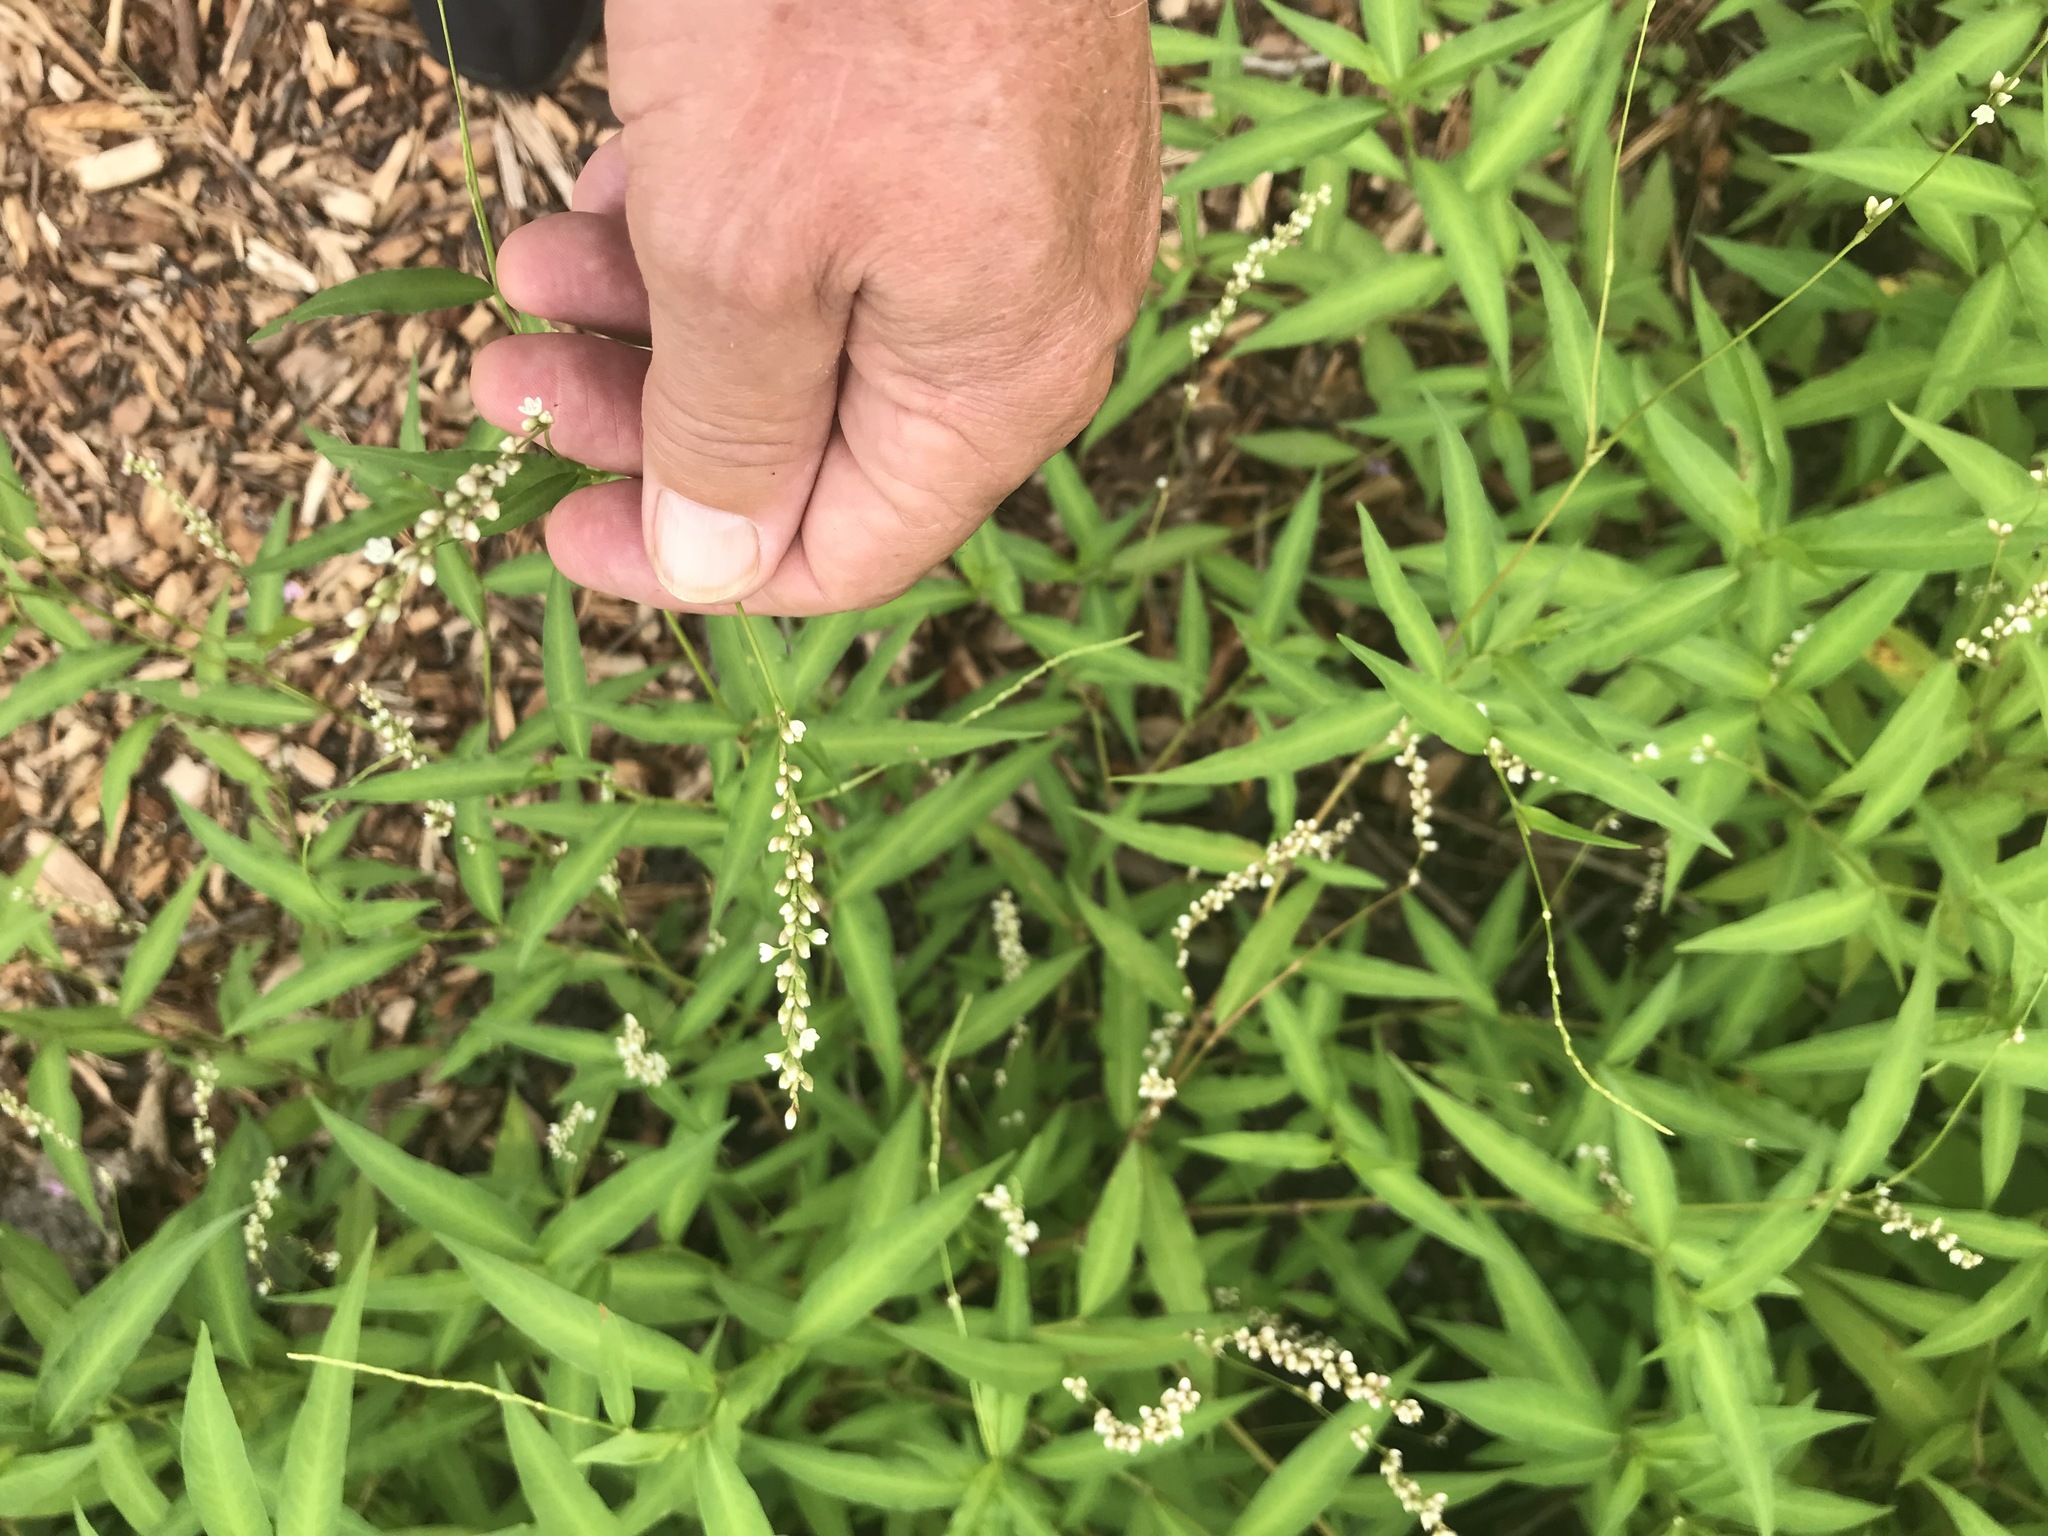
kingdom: Plantae
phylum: Tracheophyta
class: Magnoliopsida
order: Caryophyllales
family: Polygonaceae
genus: Persicaria
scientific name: Persicaria hydropiperoides
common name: Swamp smartweed
